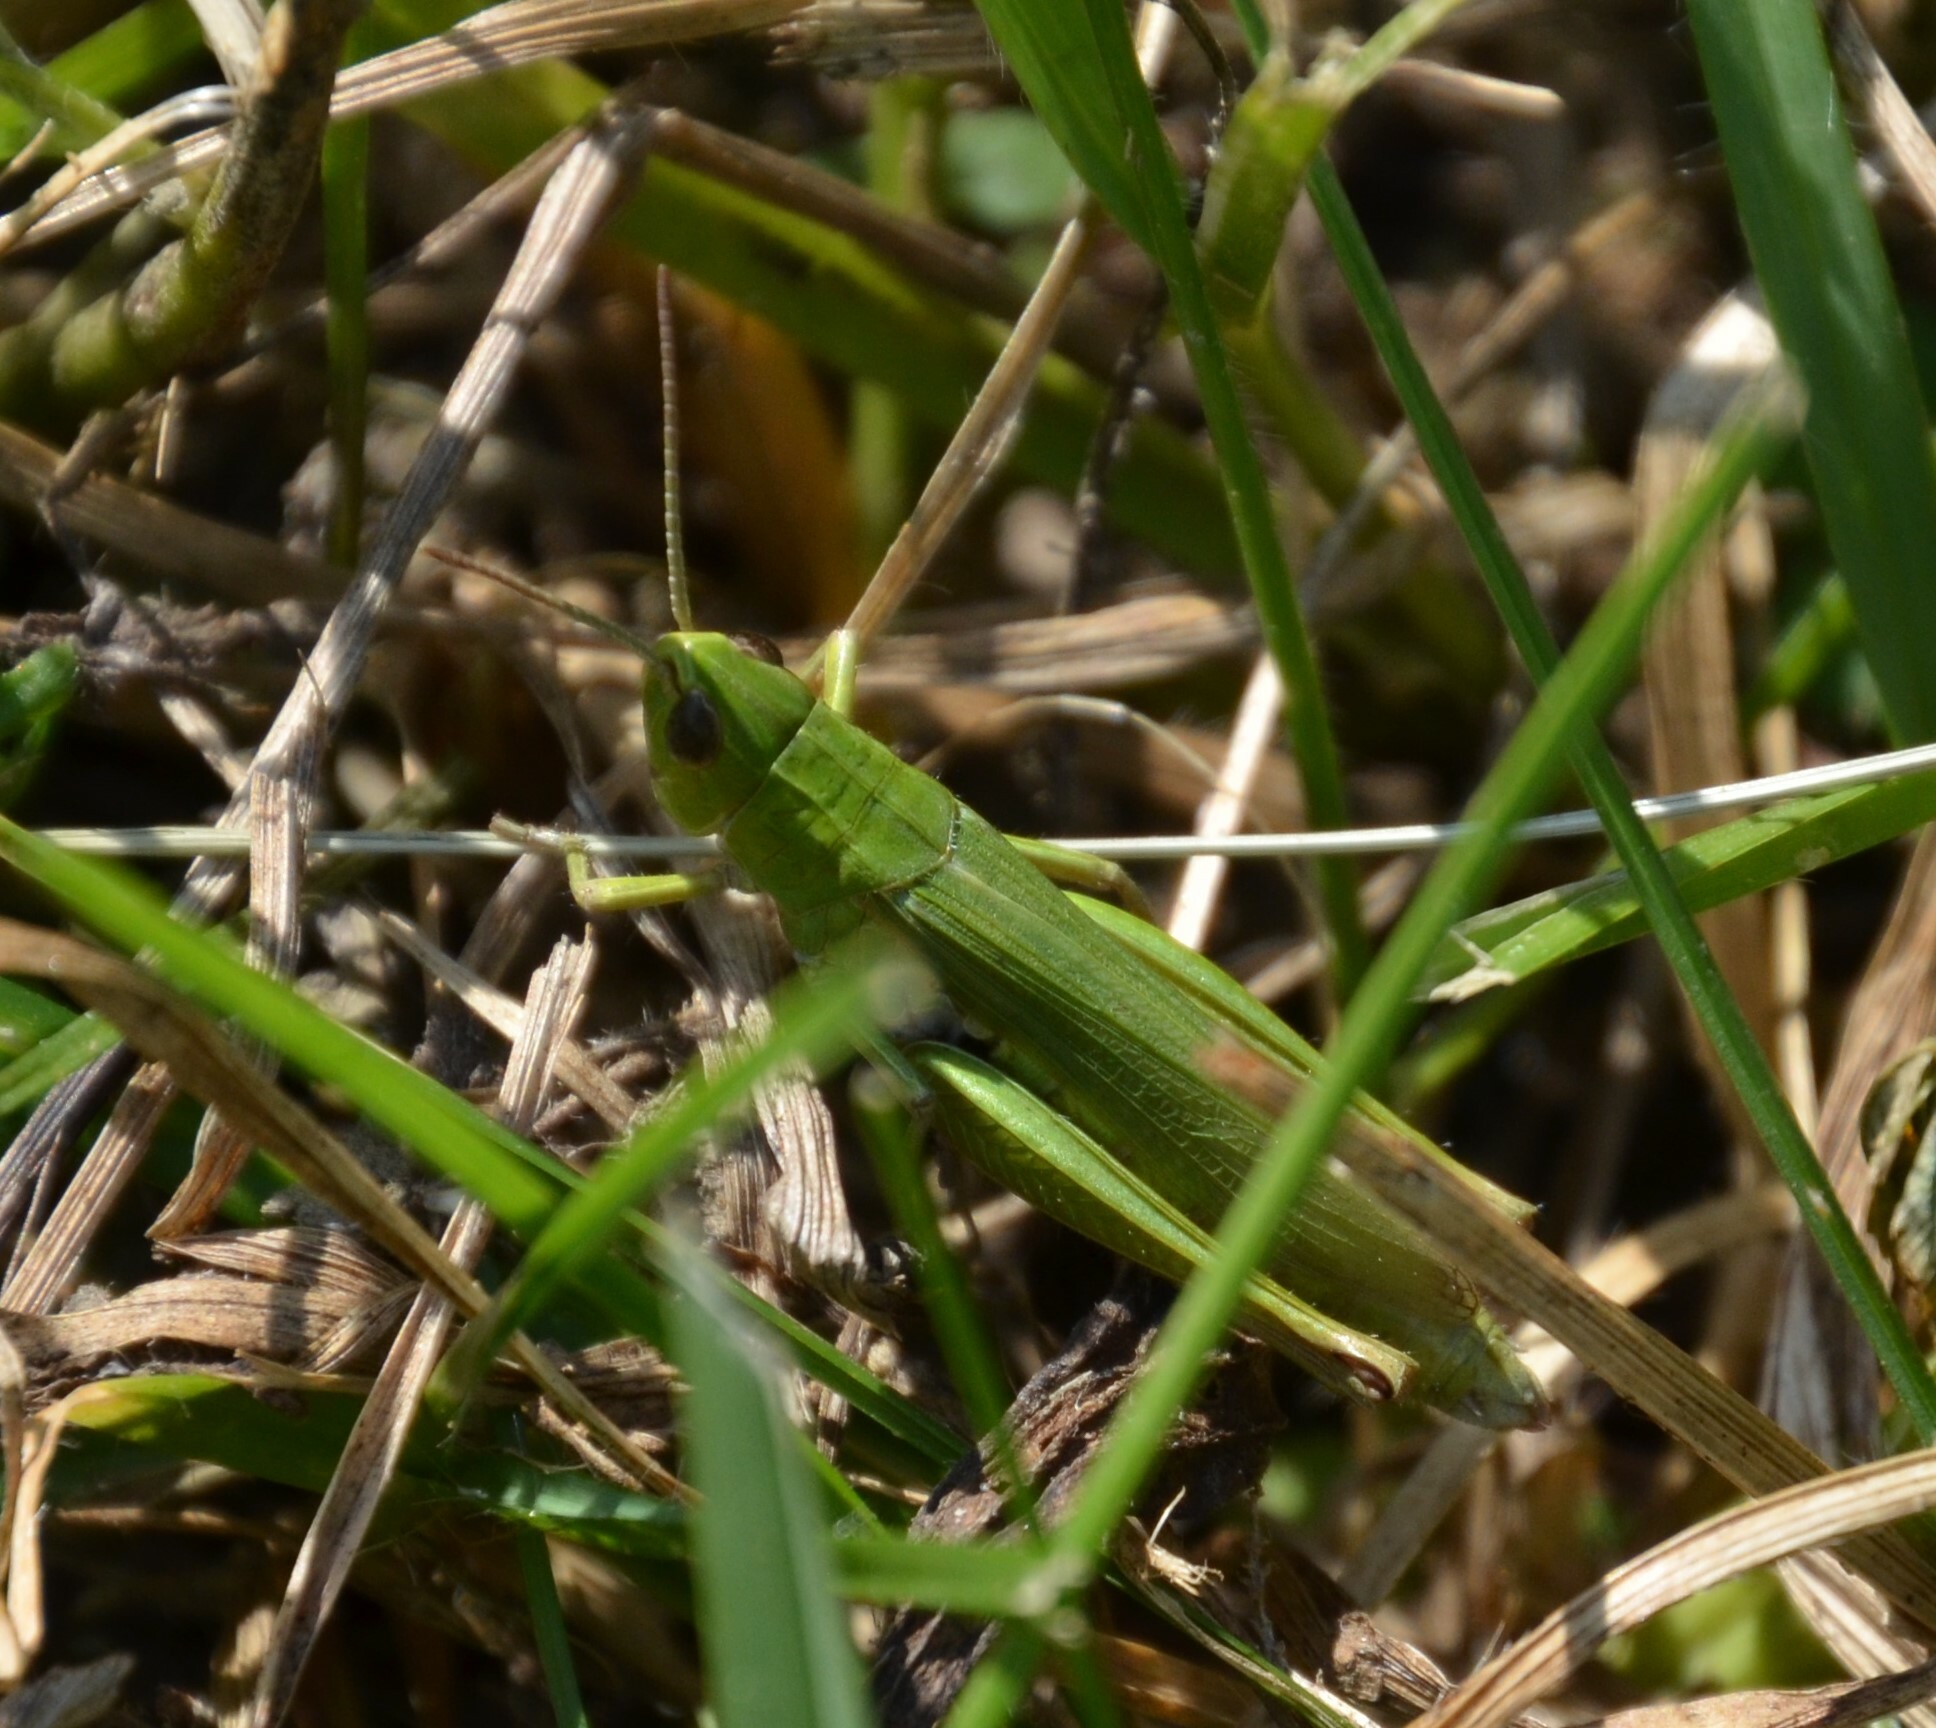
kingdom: Animalia
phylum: Arthropoda
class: Insecta
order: Orthoptera
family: Acrididae
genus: Chorthippus
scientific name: Chorthippus dorsatus
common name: Steppe grasshopper
